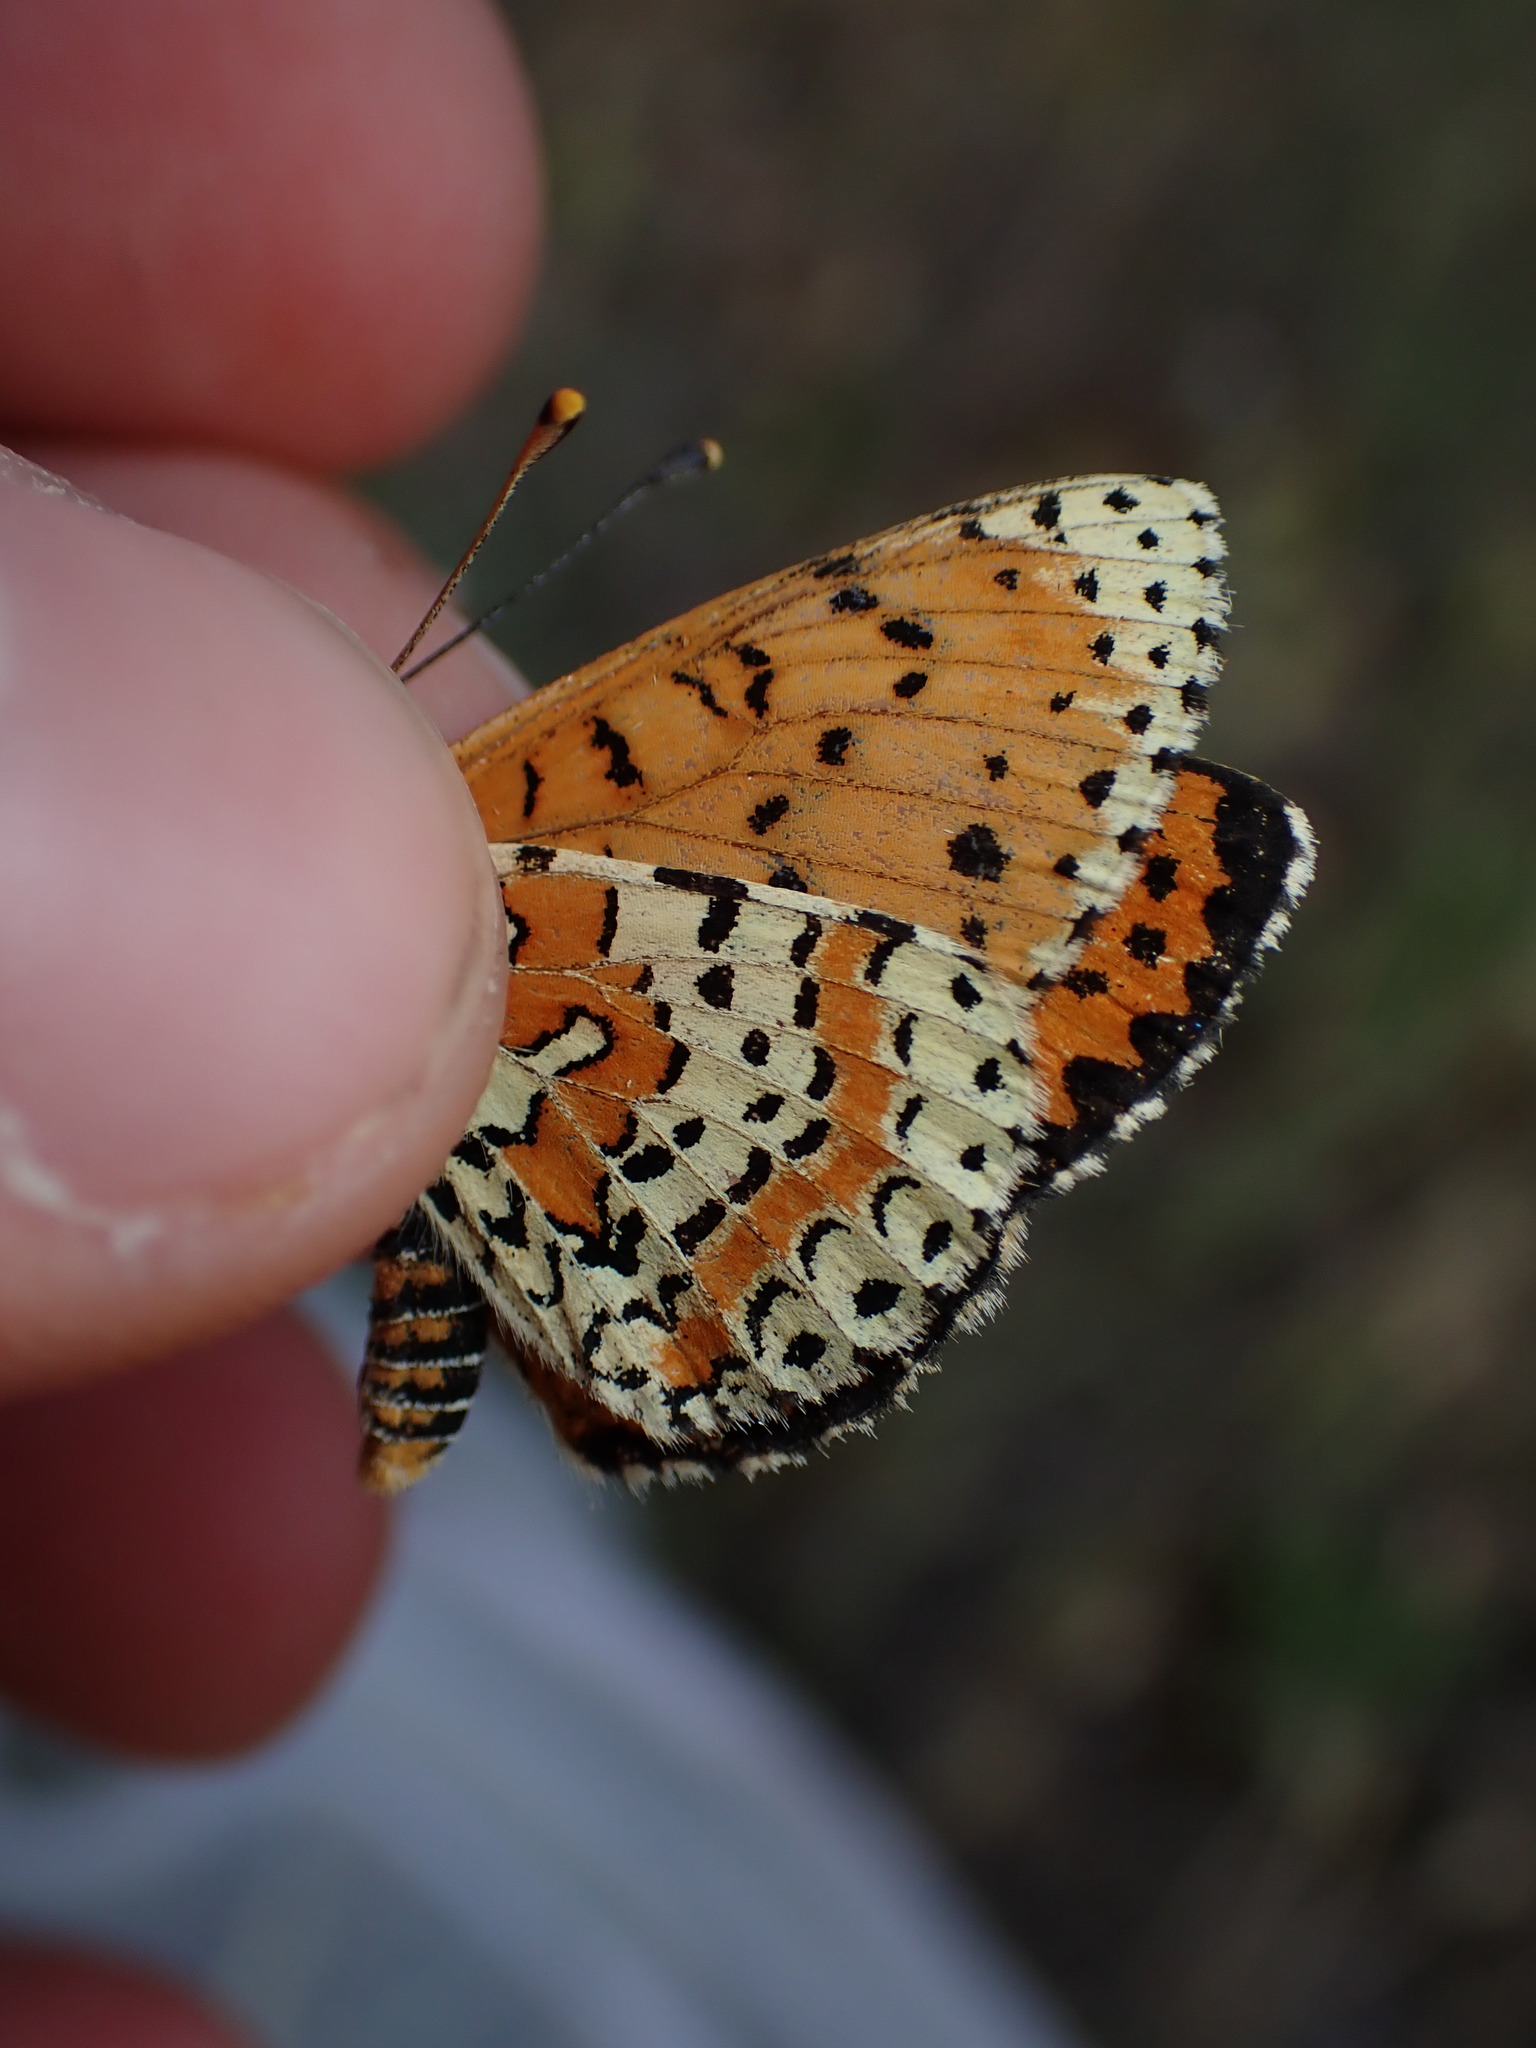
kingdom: Animalia
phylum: Arthropoda
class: Insecta
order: Lepidoptera
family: Nymphalidae
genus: Melitaea
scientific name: Melitaea didyma
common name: Spotted fritillary
